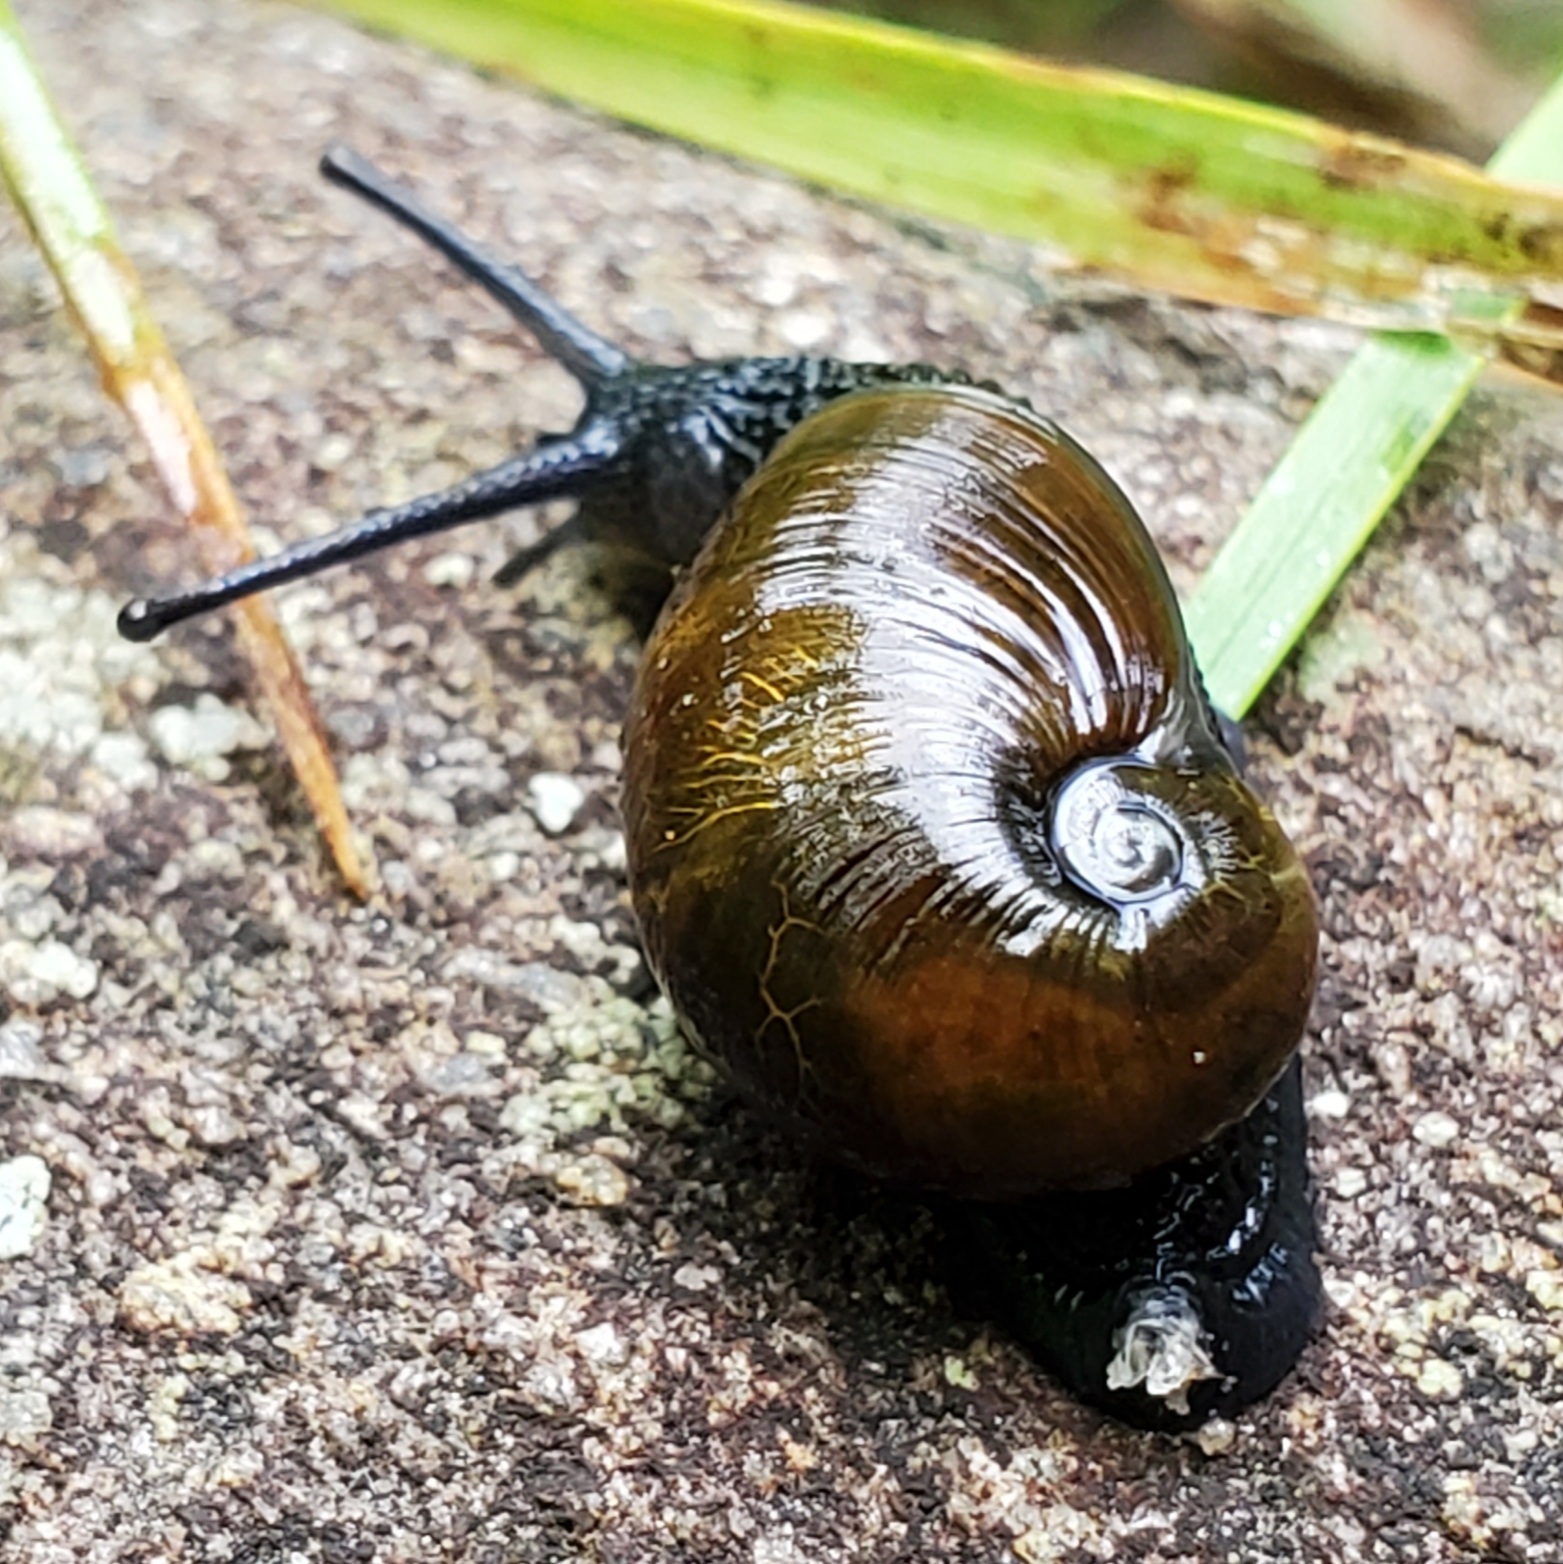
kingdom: Animalia
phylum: Mollusca
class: Gastropoda
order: Stylommatophora
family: Gastrodontidae
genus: Vitrinizonites
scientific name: Vitrinizonites latissimus
